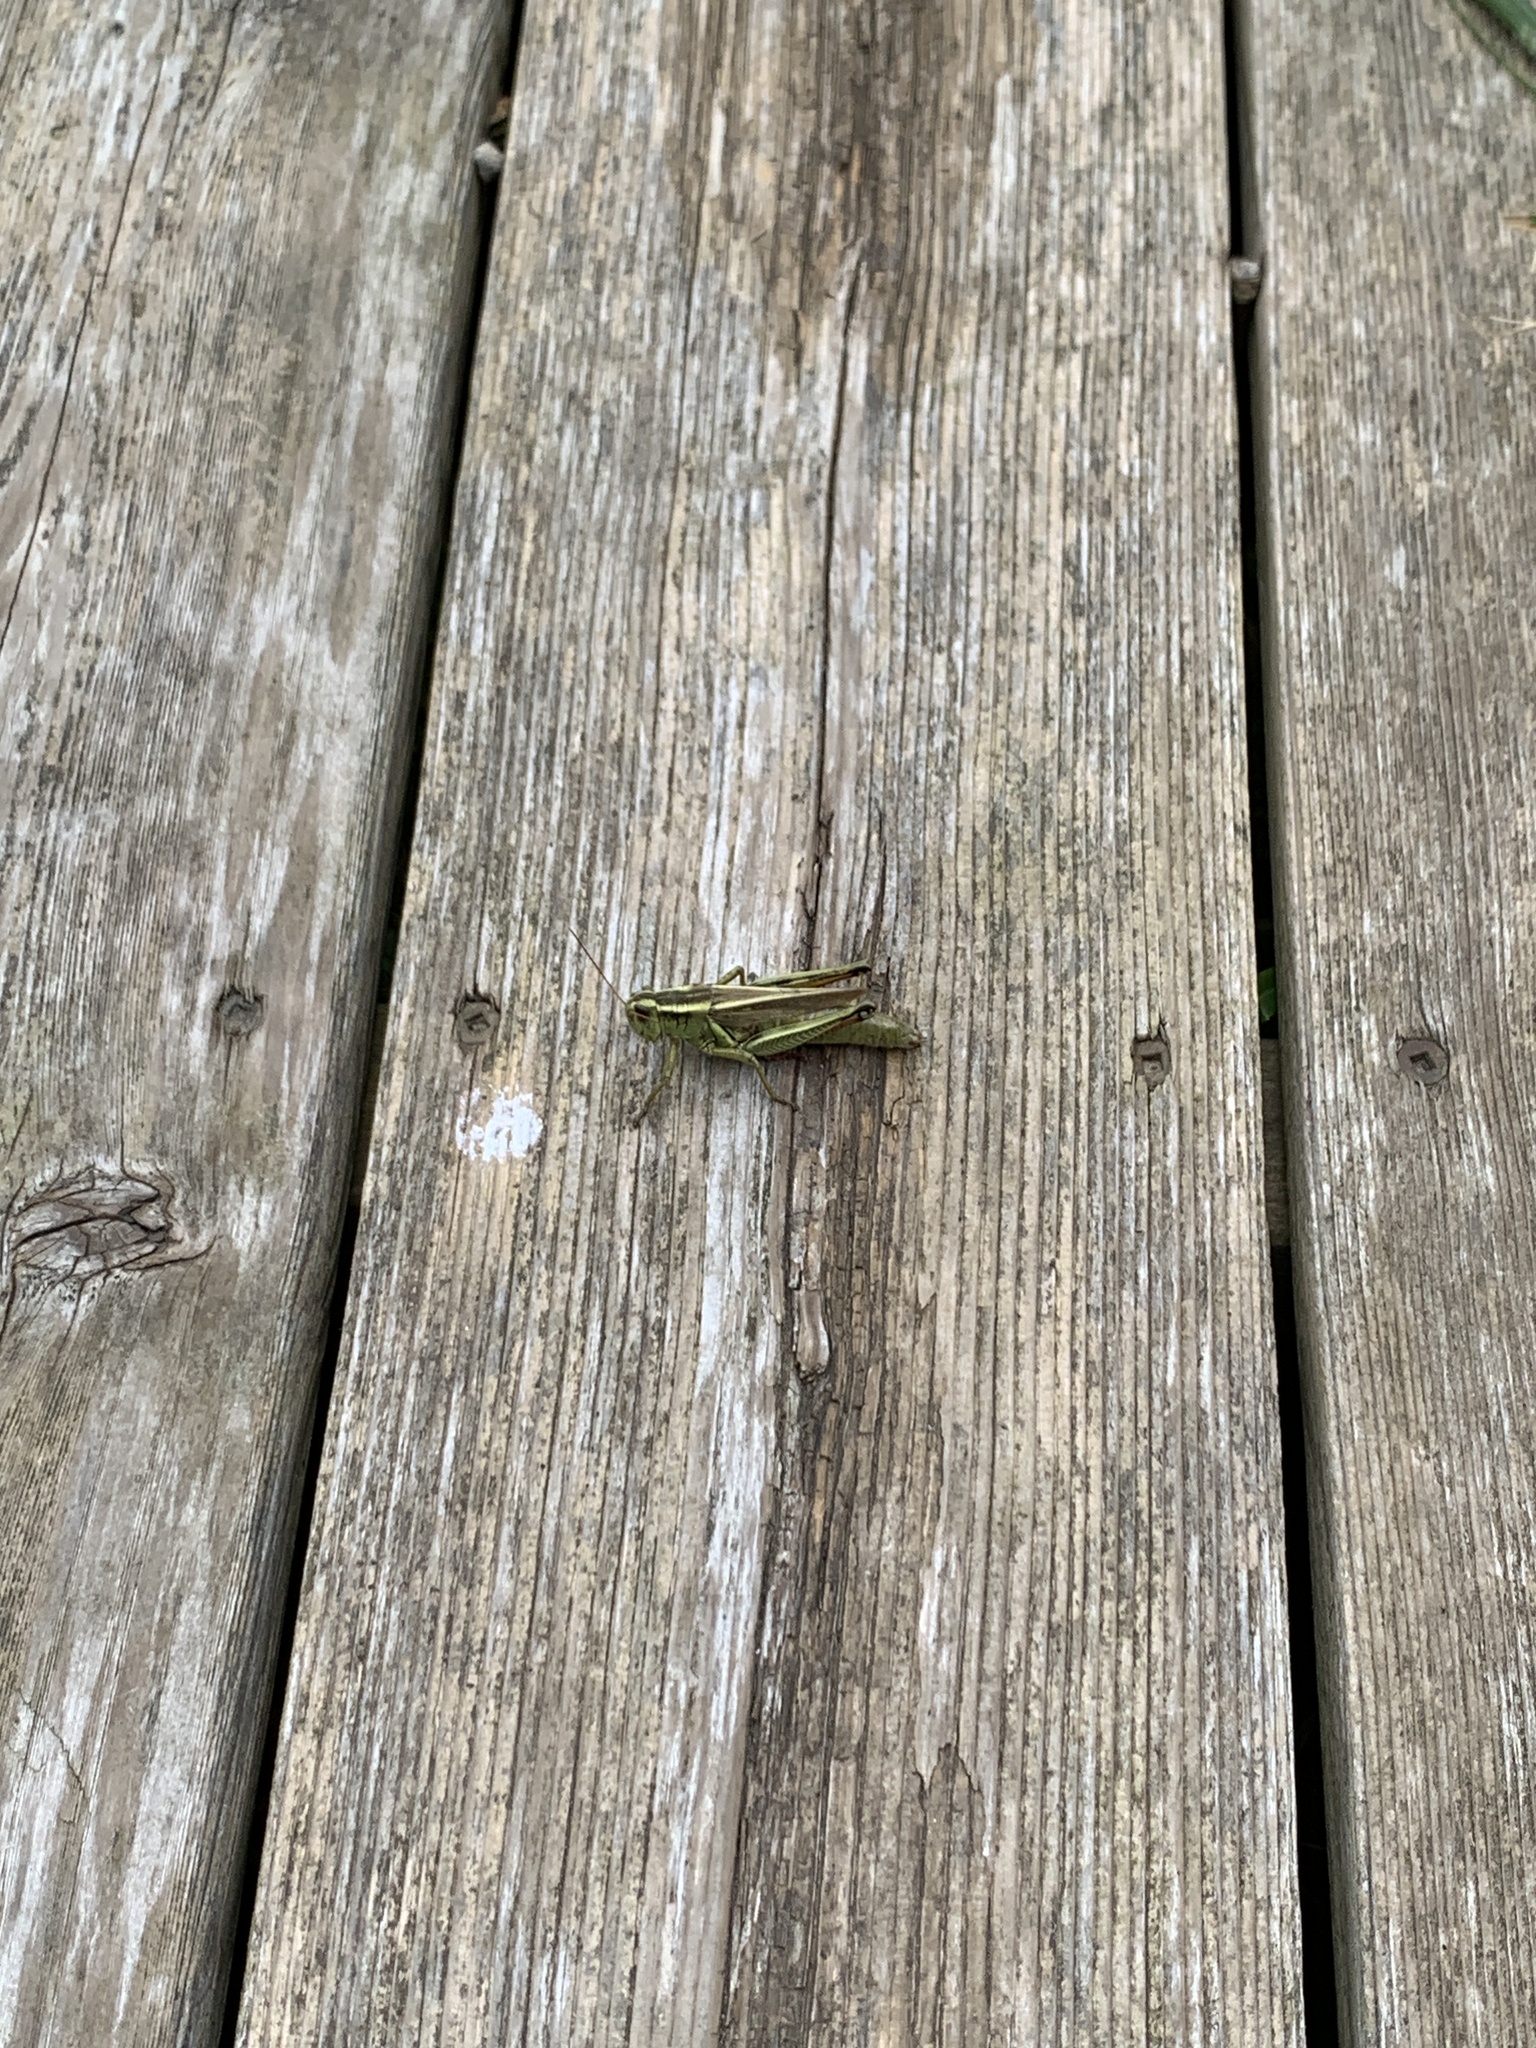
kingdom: Animalia
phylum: Arthropoda
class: Insecta
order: Orthoptera
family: Acrididae
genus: Melanoplus
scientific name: Melanoplus bivittatus
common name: Two-striped grasshopper
